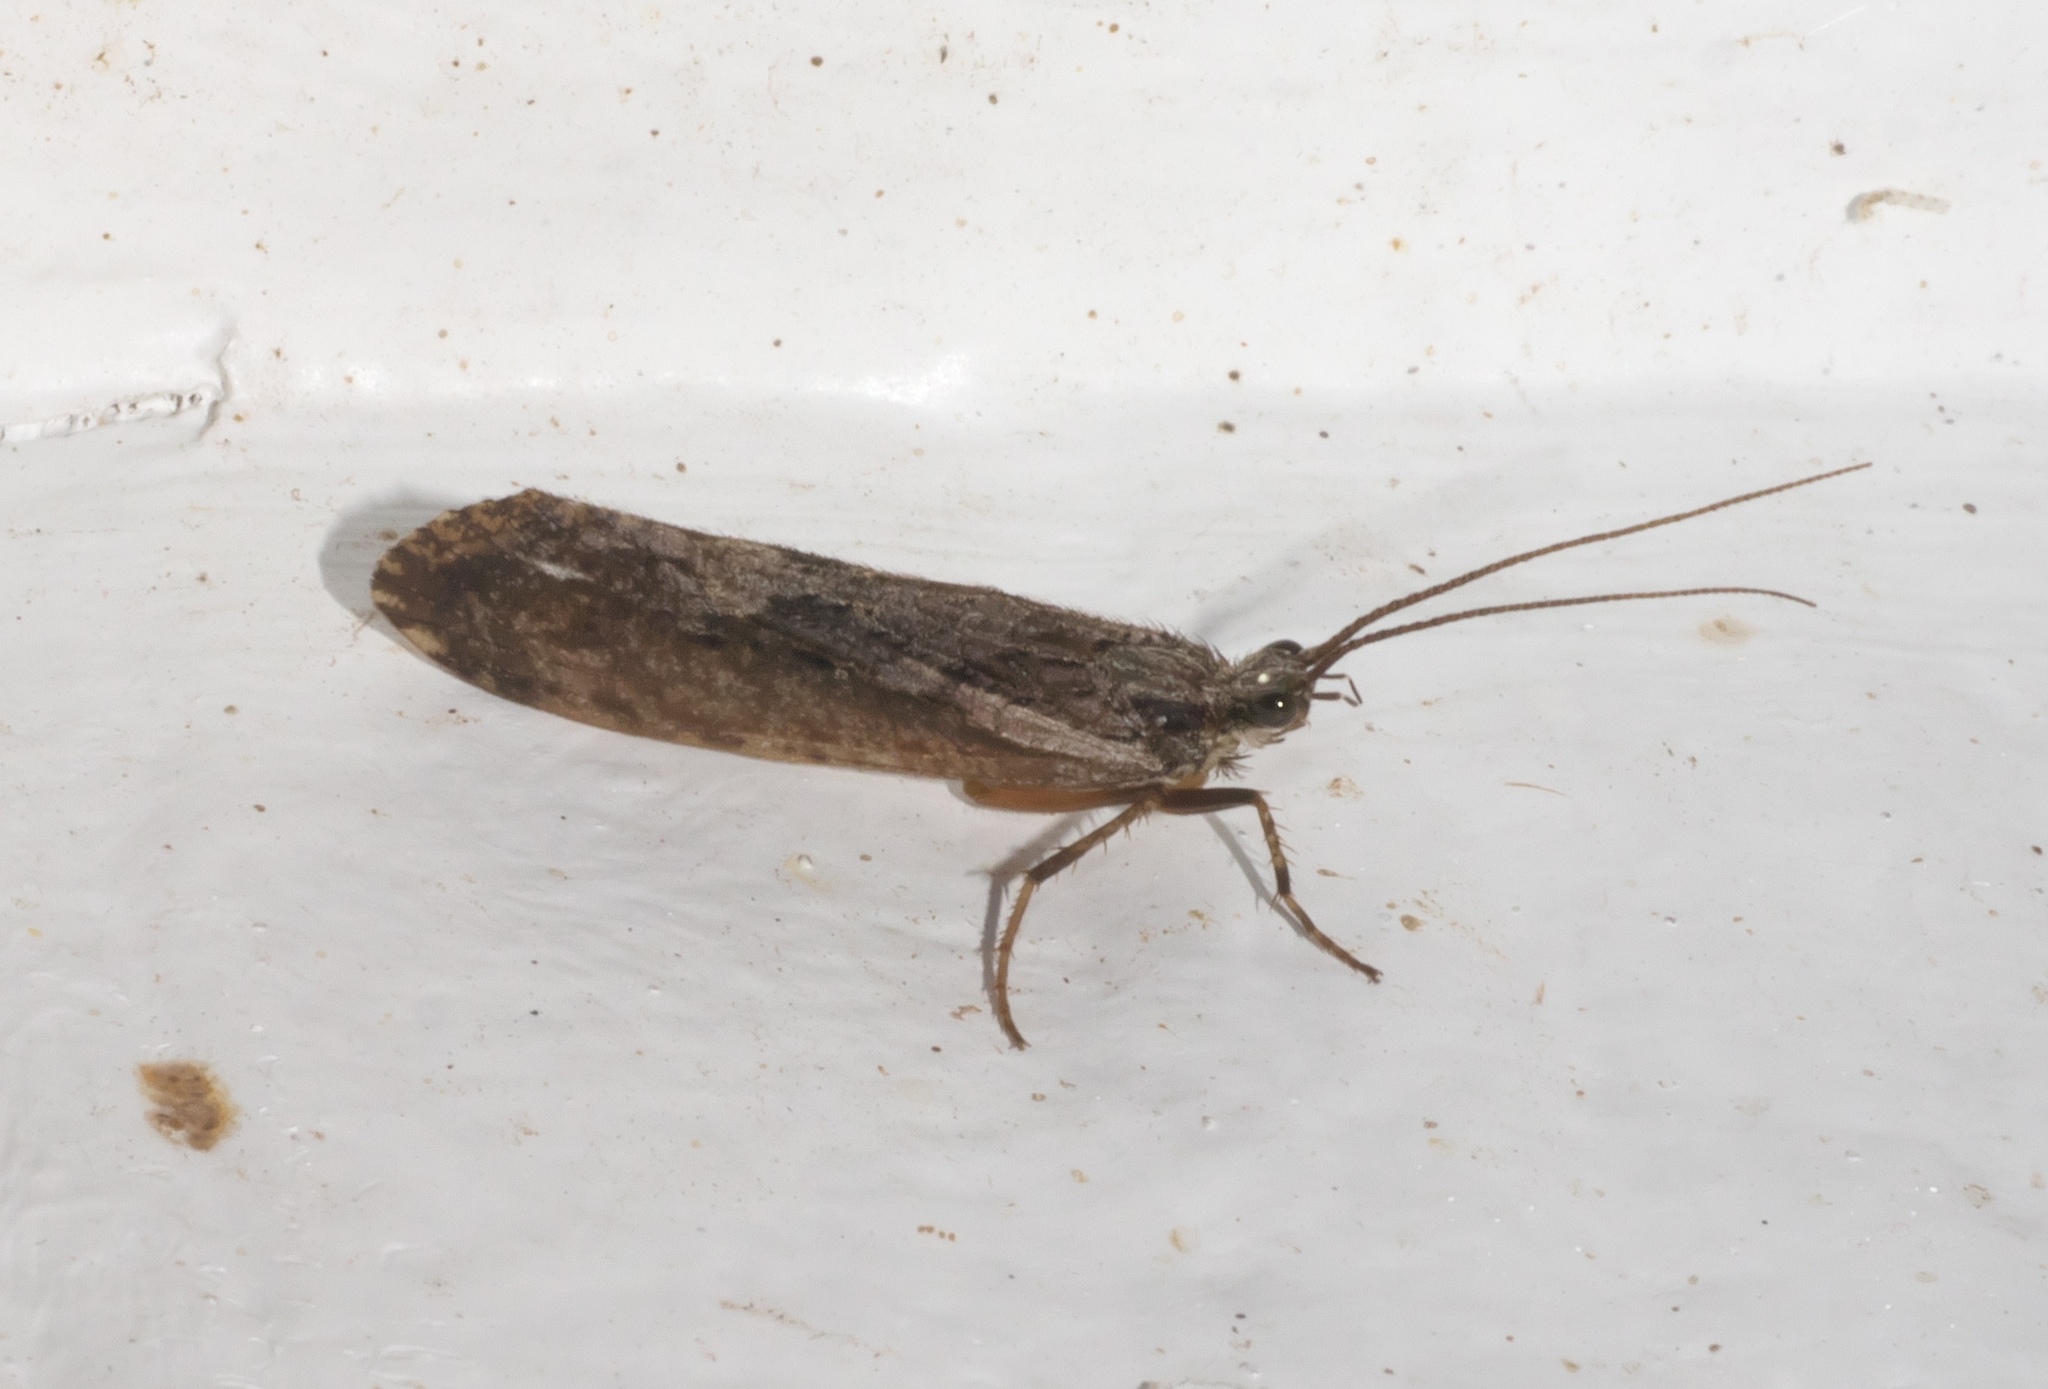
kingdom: Animalia
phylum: Arthropoda
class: Insecta
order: Trichoptera
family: Phryganeidae
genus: Phryganea
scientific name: Phryganea sayi
